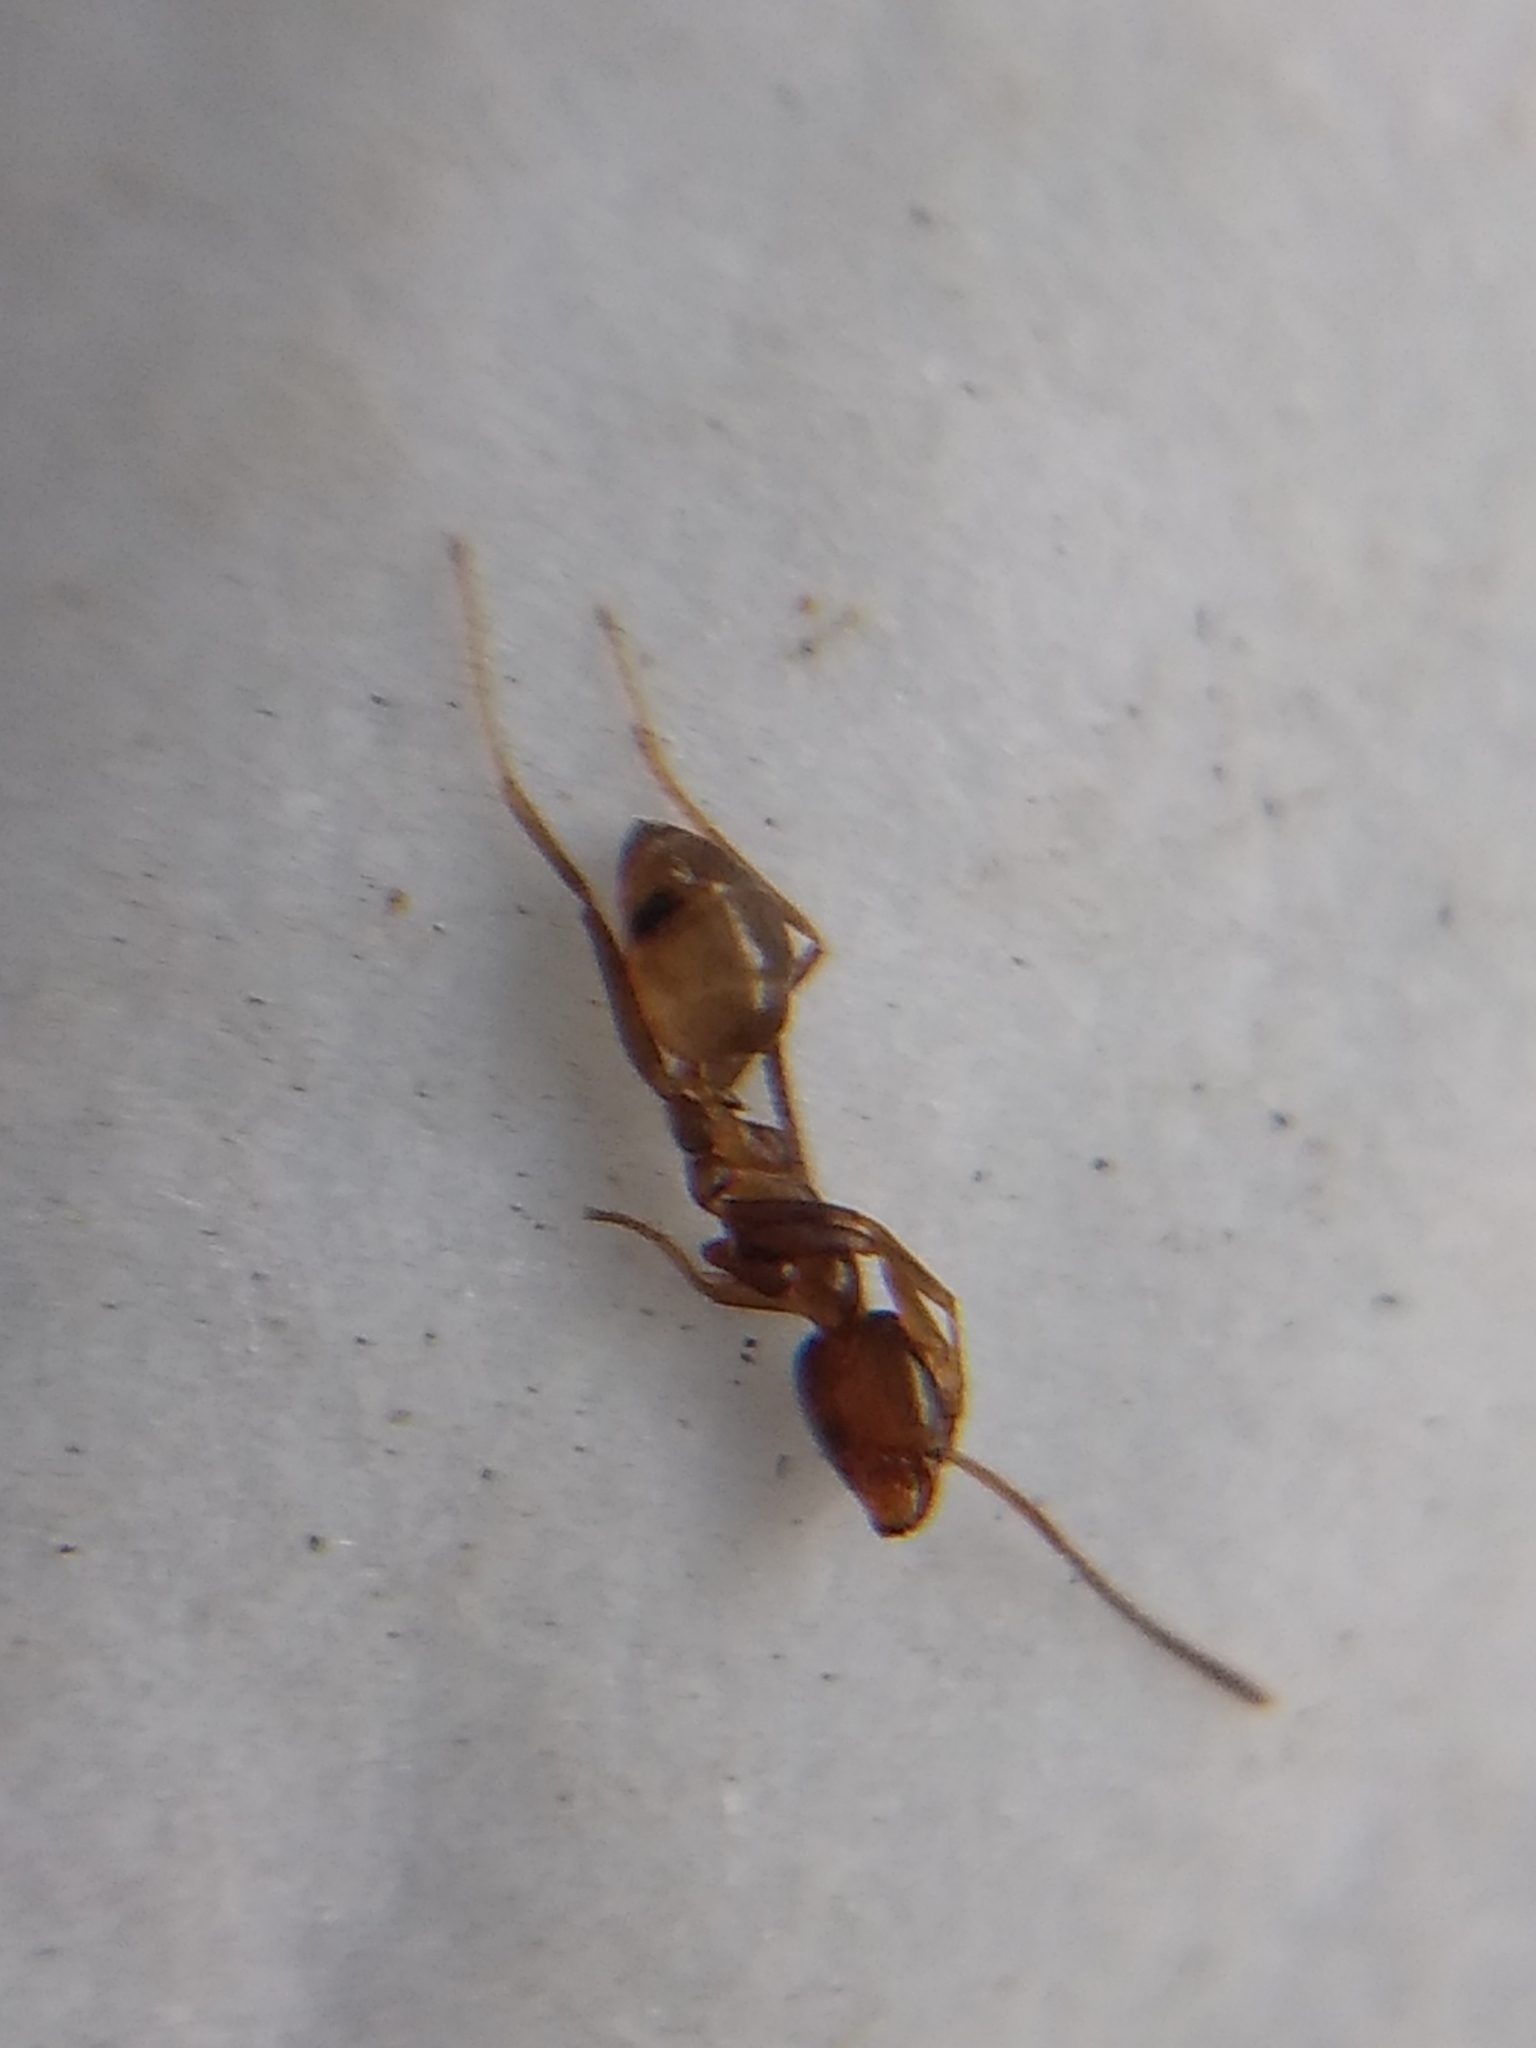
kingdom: Animalia
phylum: Arthropoda
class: Insecta
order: Hymenoptera
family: Formicidae
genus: Linepithema
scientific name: Linepithema humile
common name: Argentine ant
